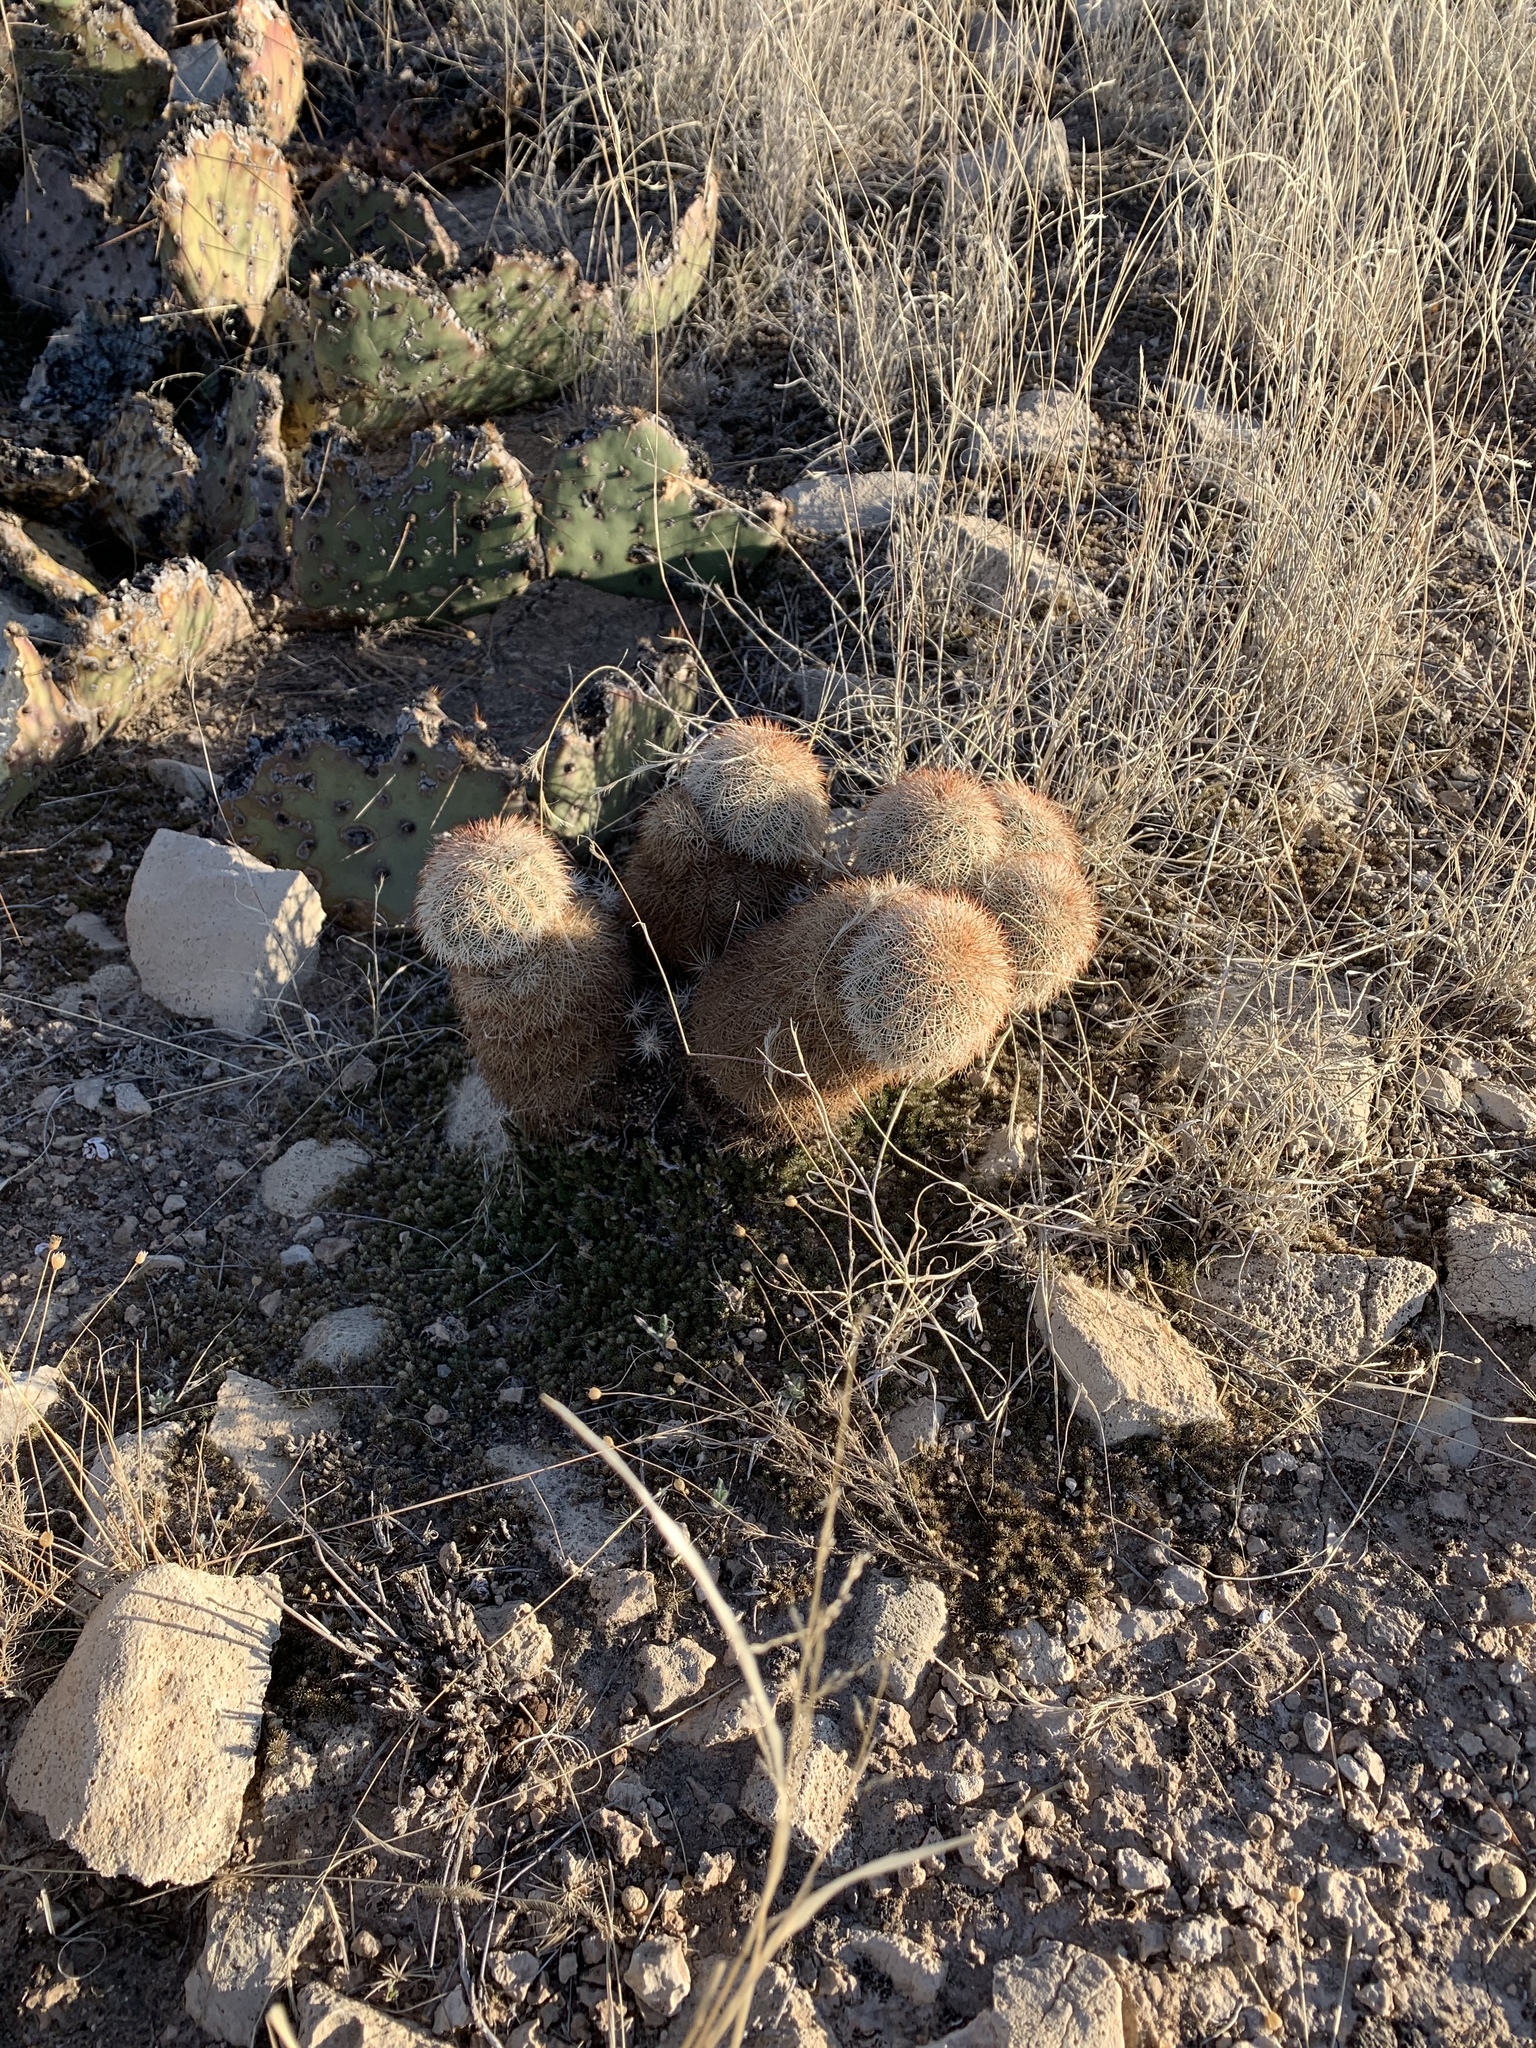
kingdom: Plantae
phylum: Tracheophyta
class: Magnoliopsida
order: Caryophyllales
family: Cactaceae
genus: Echinocereus
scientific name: Echinocereus dasyacanthus
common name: Spiny hedgehog cactus
